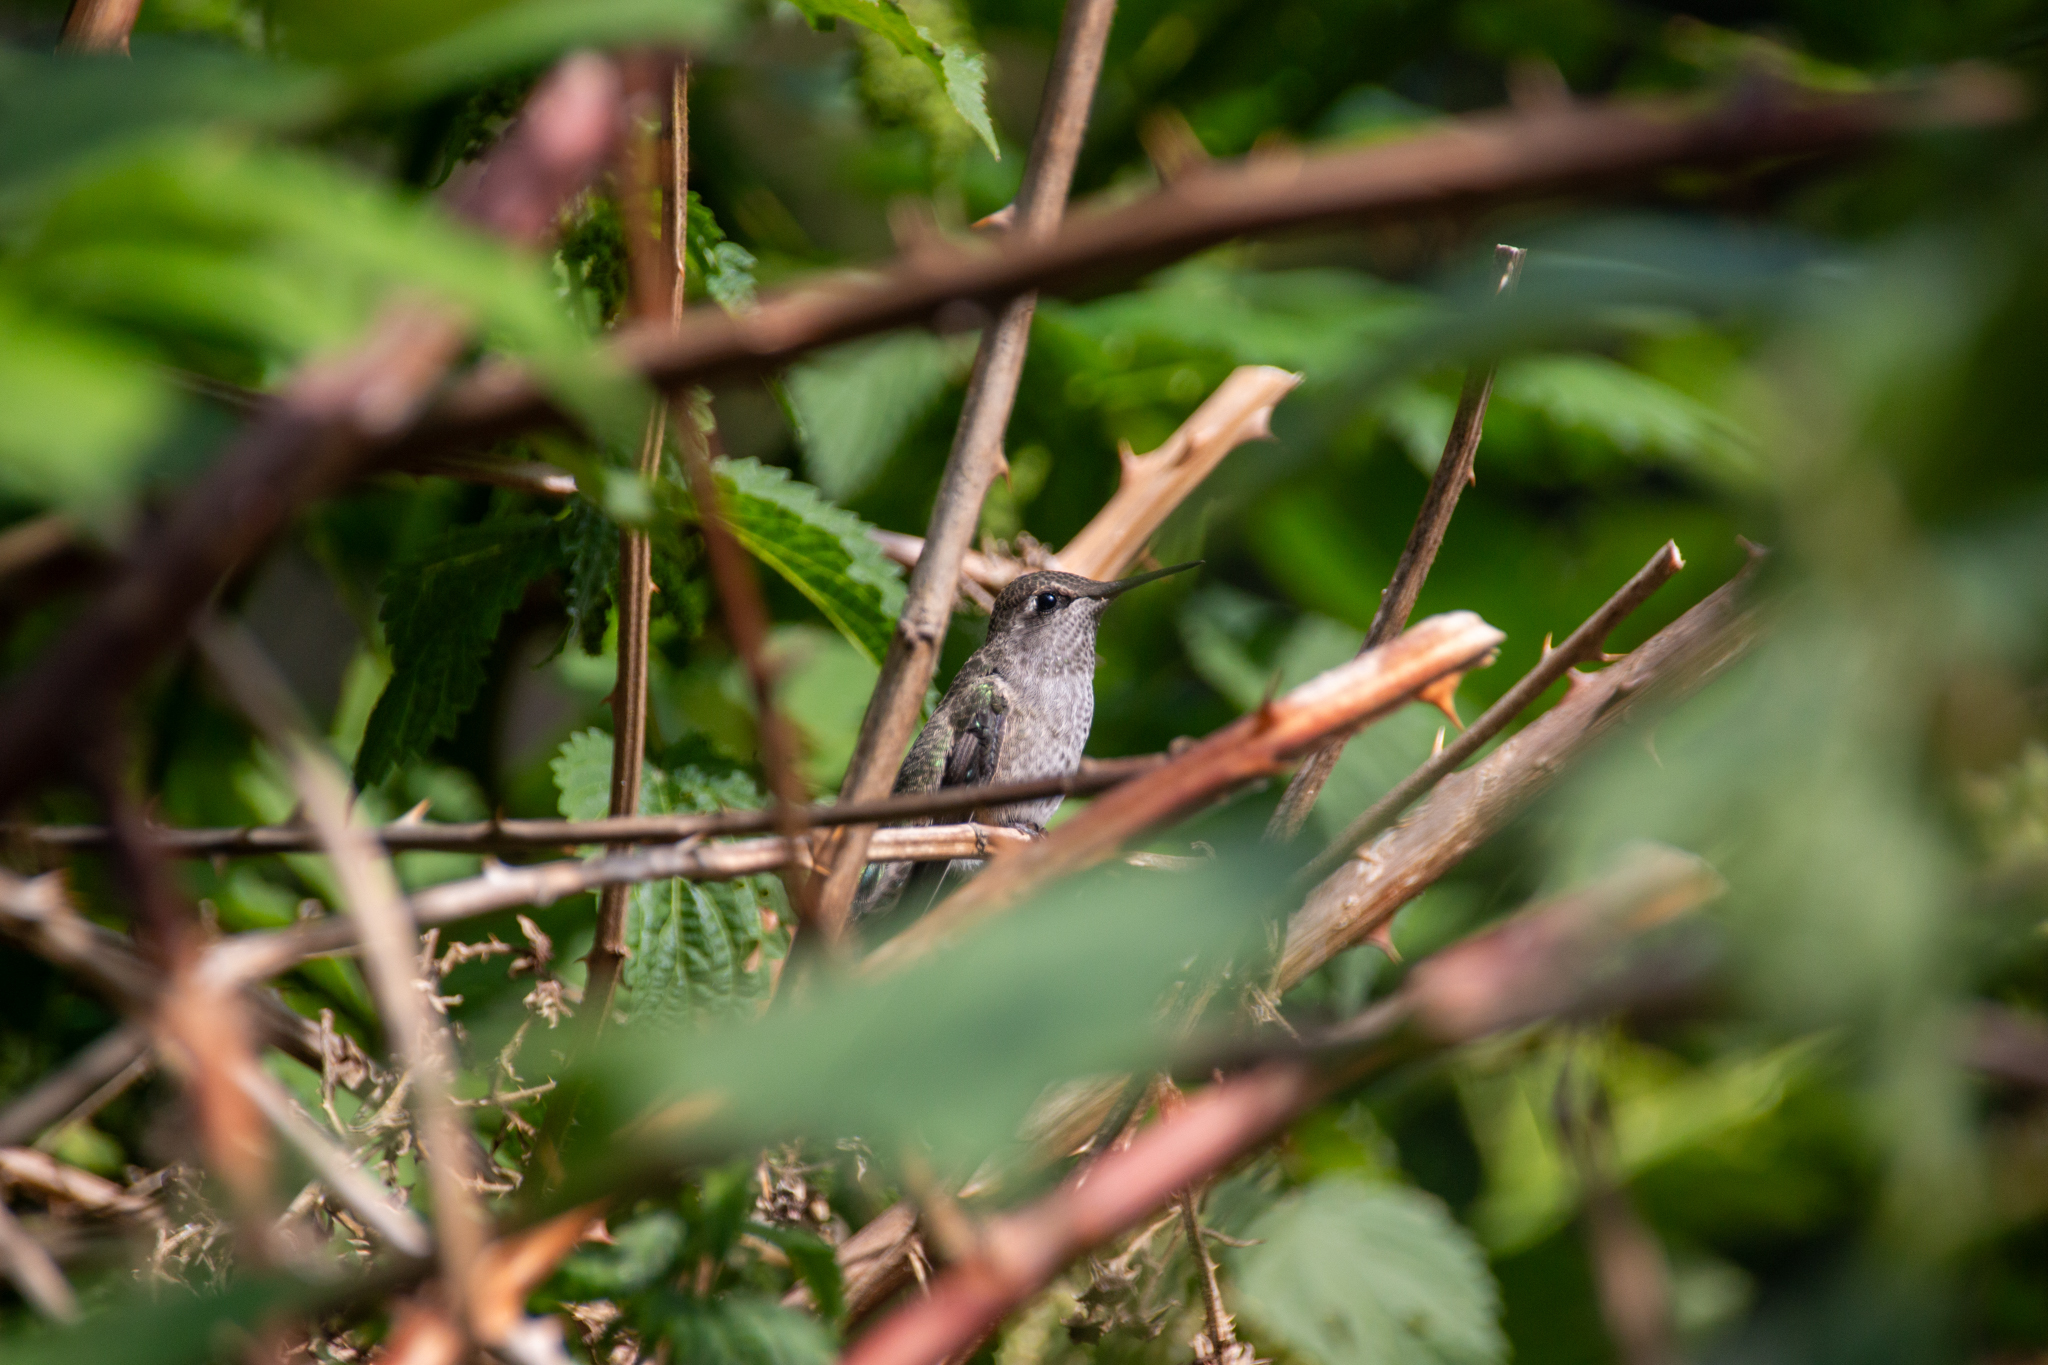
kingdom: Animalia
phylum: Chordata
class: Aves
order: Apodiformes
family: Trochilidae
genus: Calypte
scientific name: Calypte anna
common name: Anna's hummingbird
